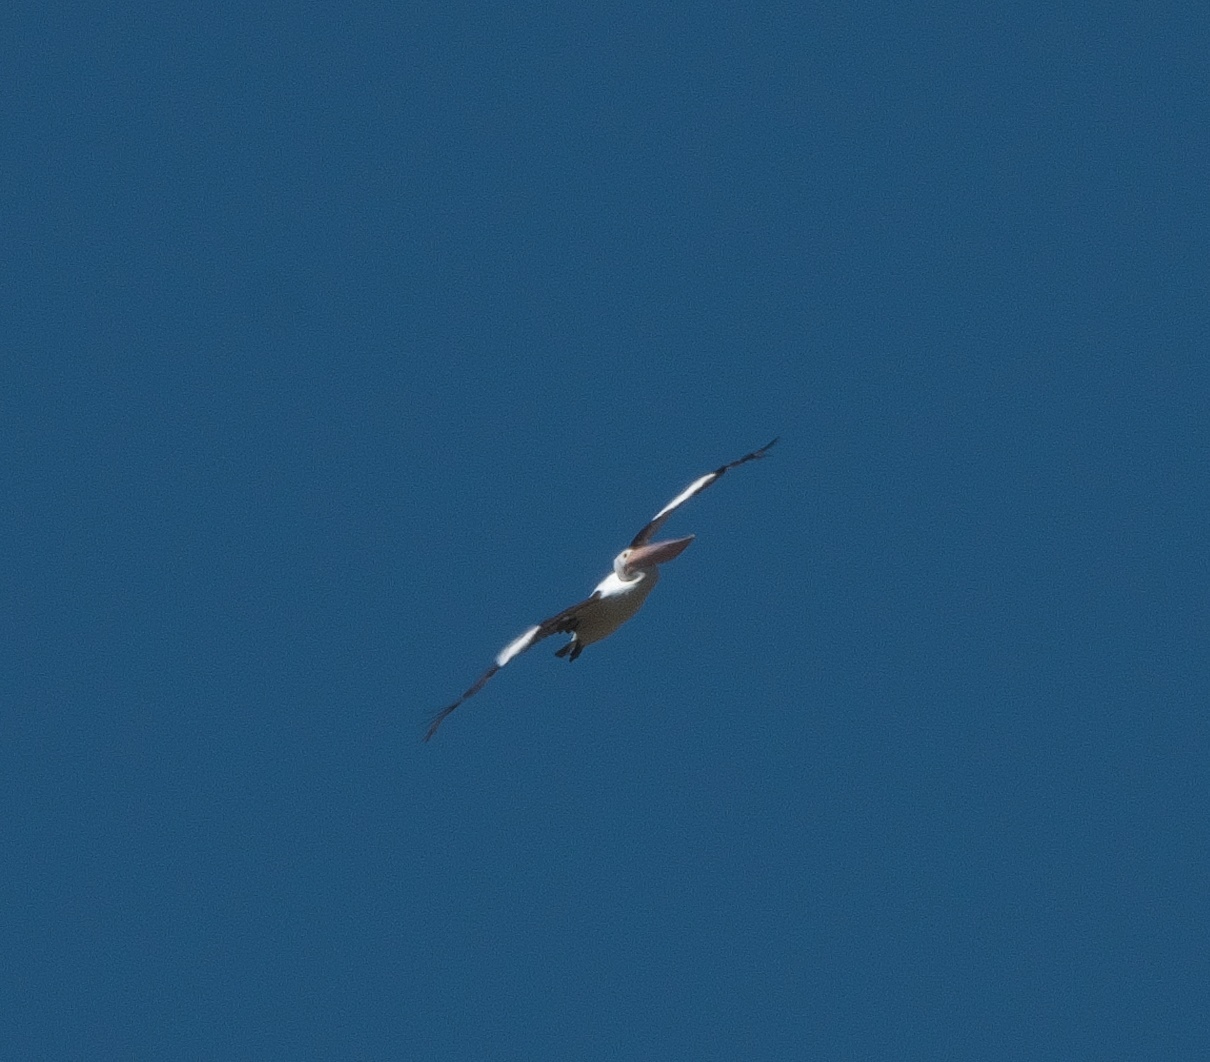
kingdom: Animalia
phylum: Chordata
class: Aves
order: Pelecaniformes
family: Pelecanidae
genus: Pelecanus
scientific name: Pelecanus conspicillatus
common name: Australian pelican
